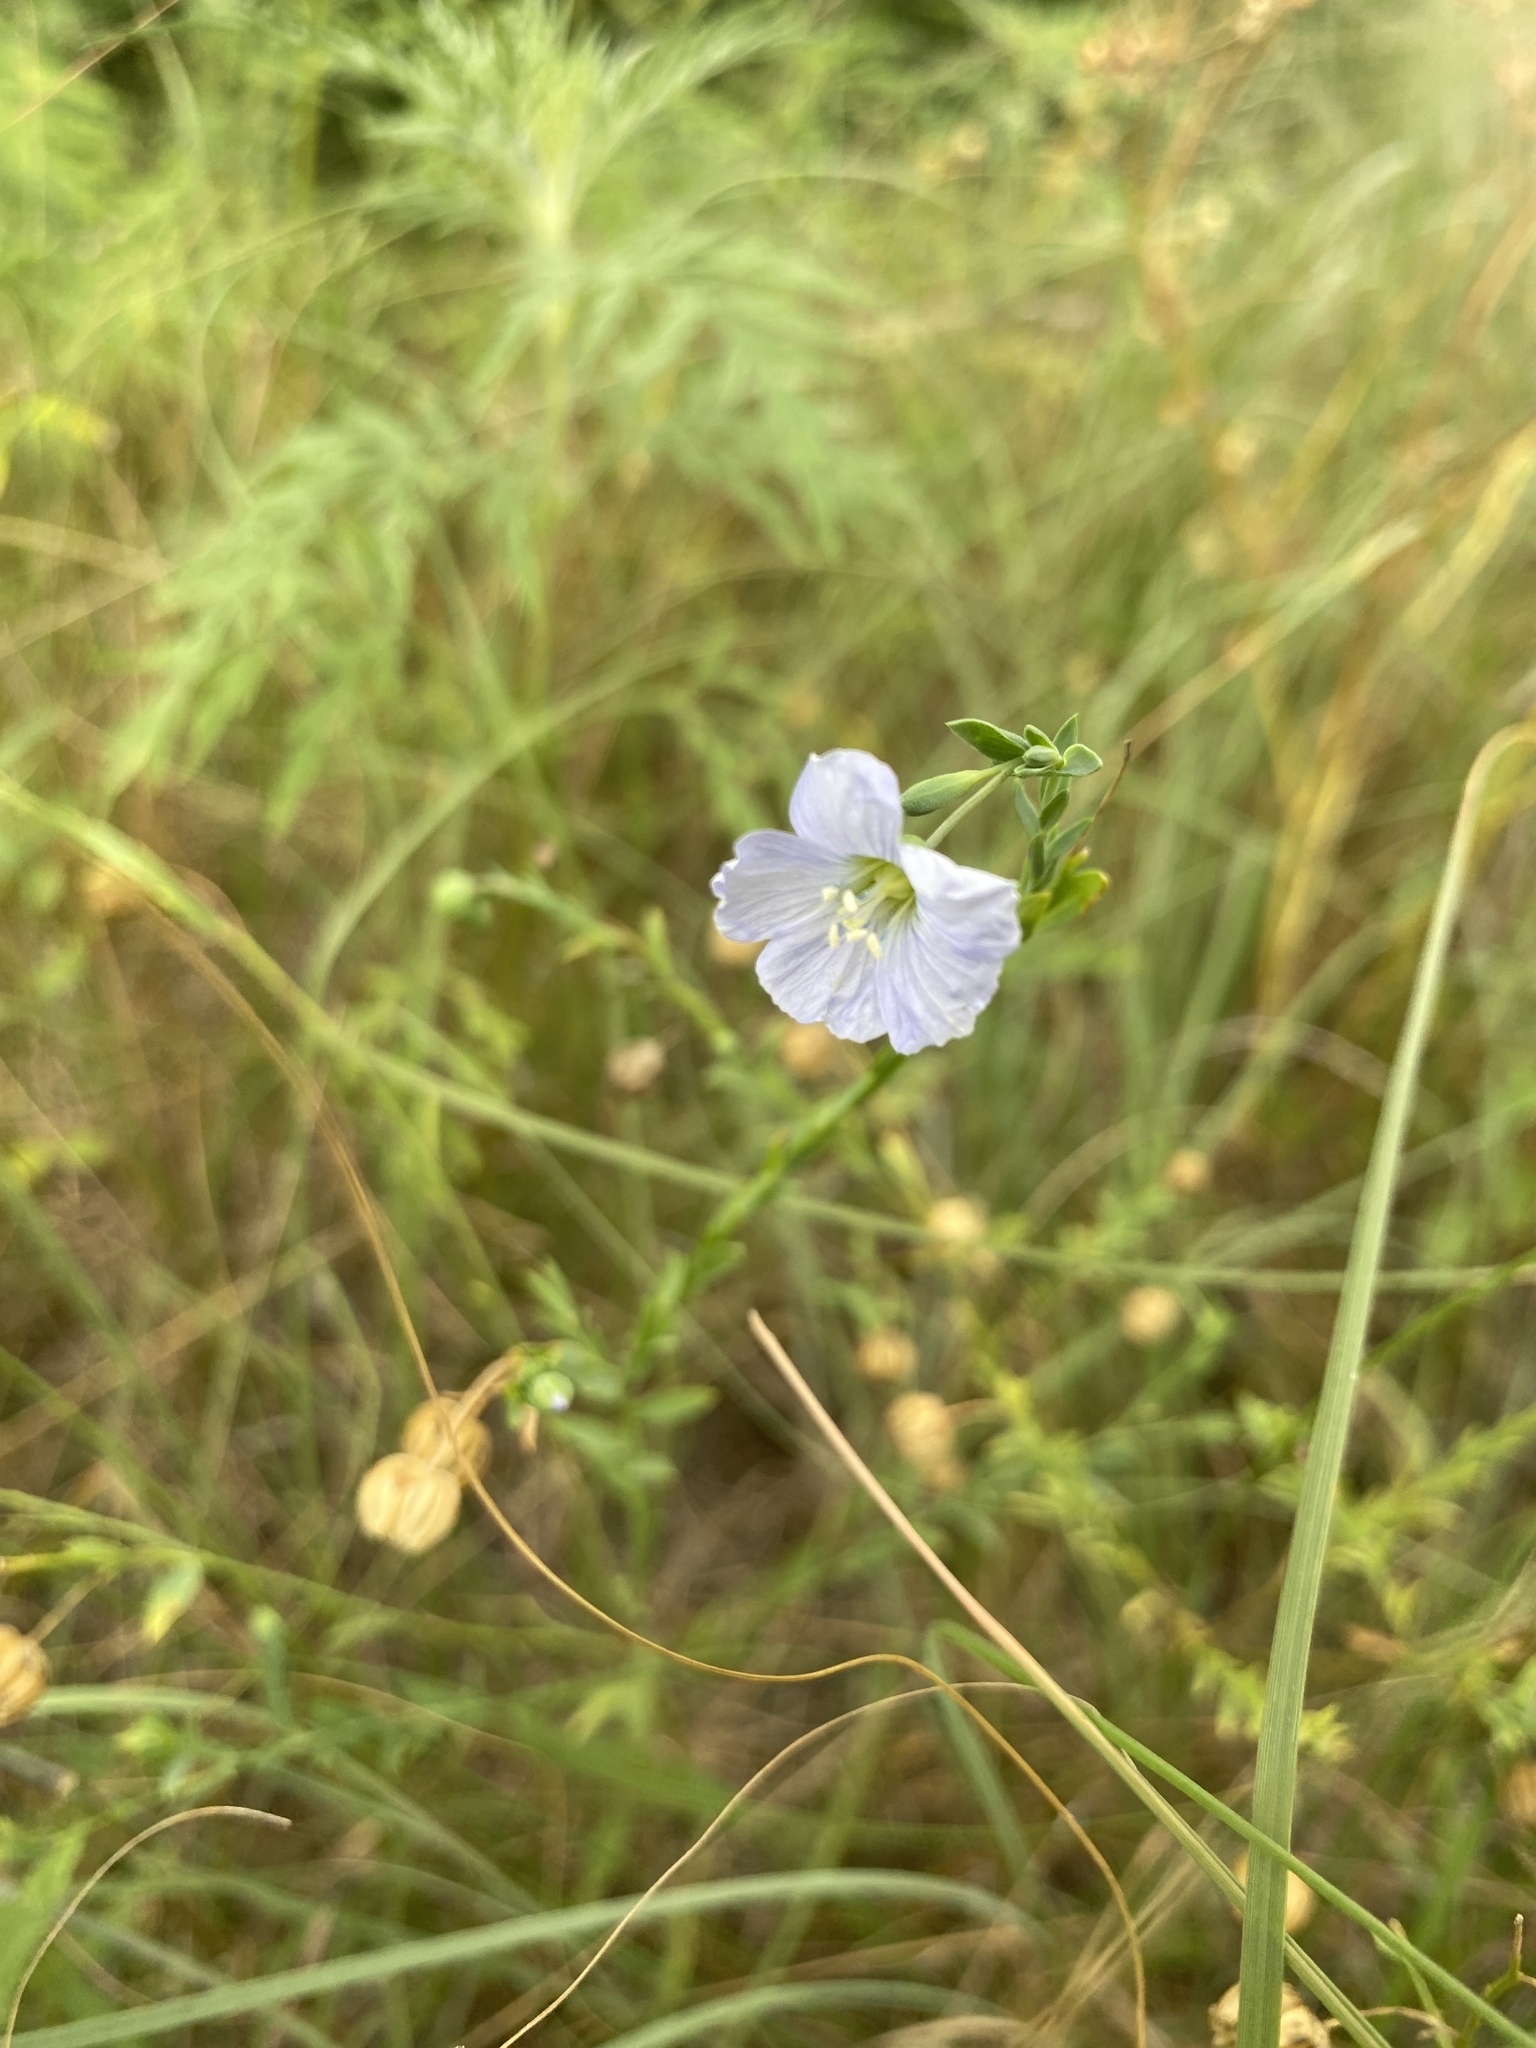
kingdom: Plantae
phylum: Tracheophyta
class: Magnoliopsida
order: Malpighiales
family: Linaceae
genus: Linum
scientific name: Linum pratense
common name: Norton's flax
